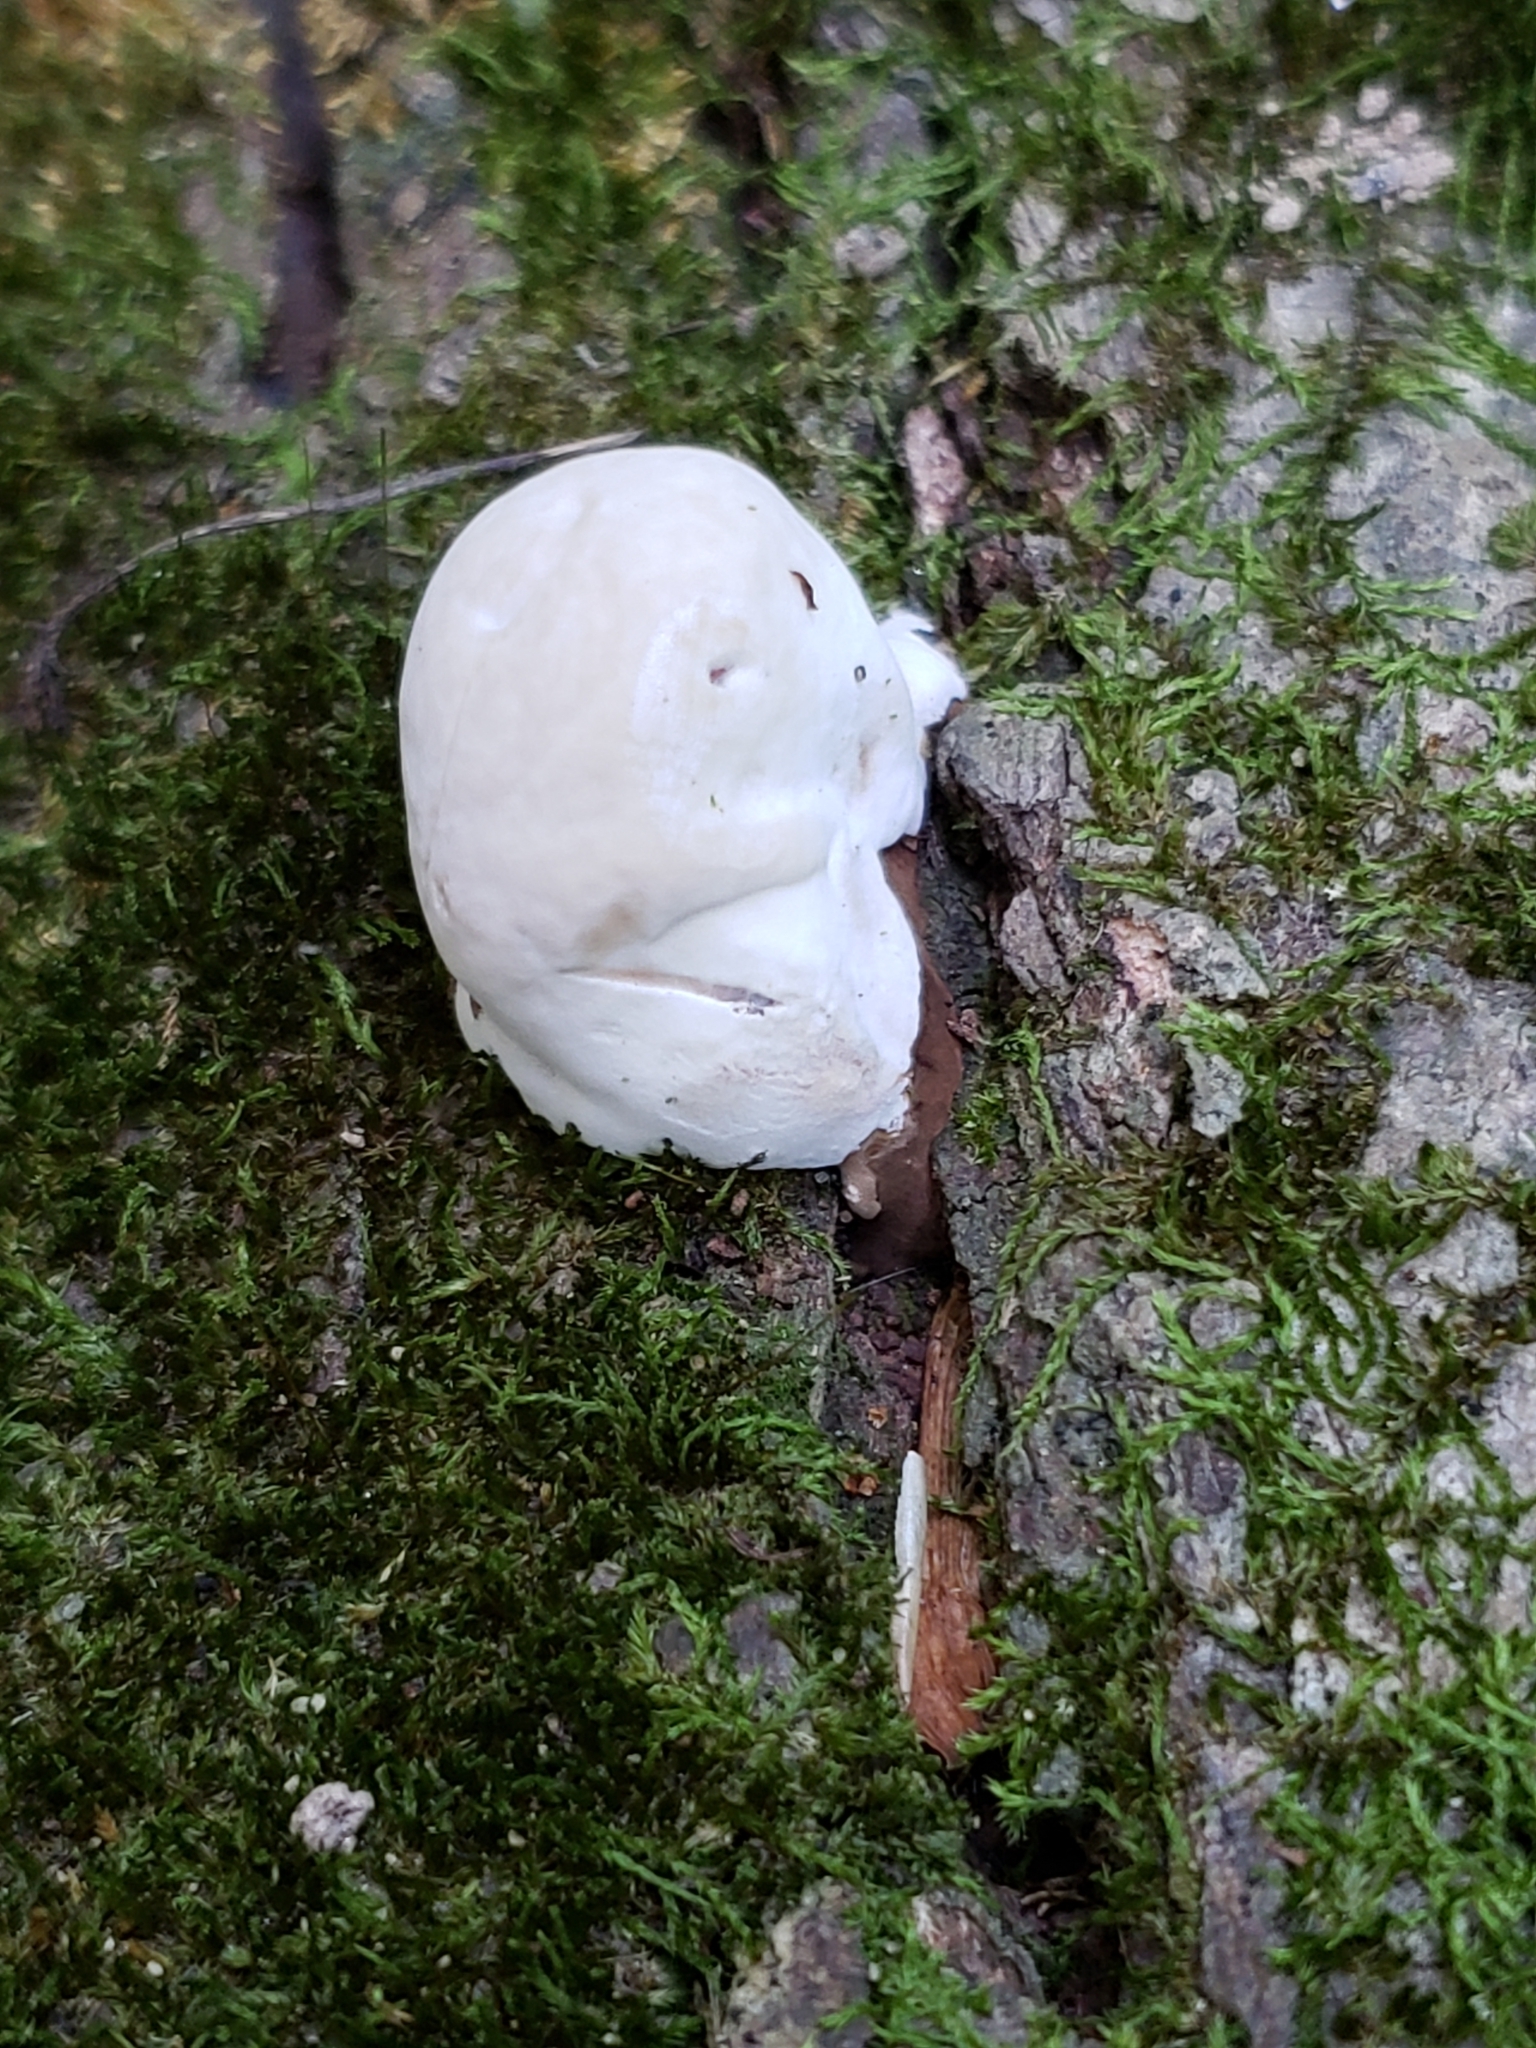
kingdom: Fungi
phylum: Basidiomycota
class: Agaricomycetes
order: Polyporales
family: Polyporaceae
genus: Ganoderma
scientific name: Ganoderma applanatum
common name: Artist's bracket
